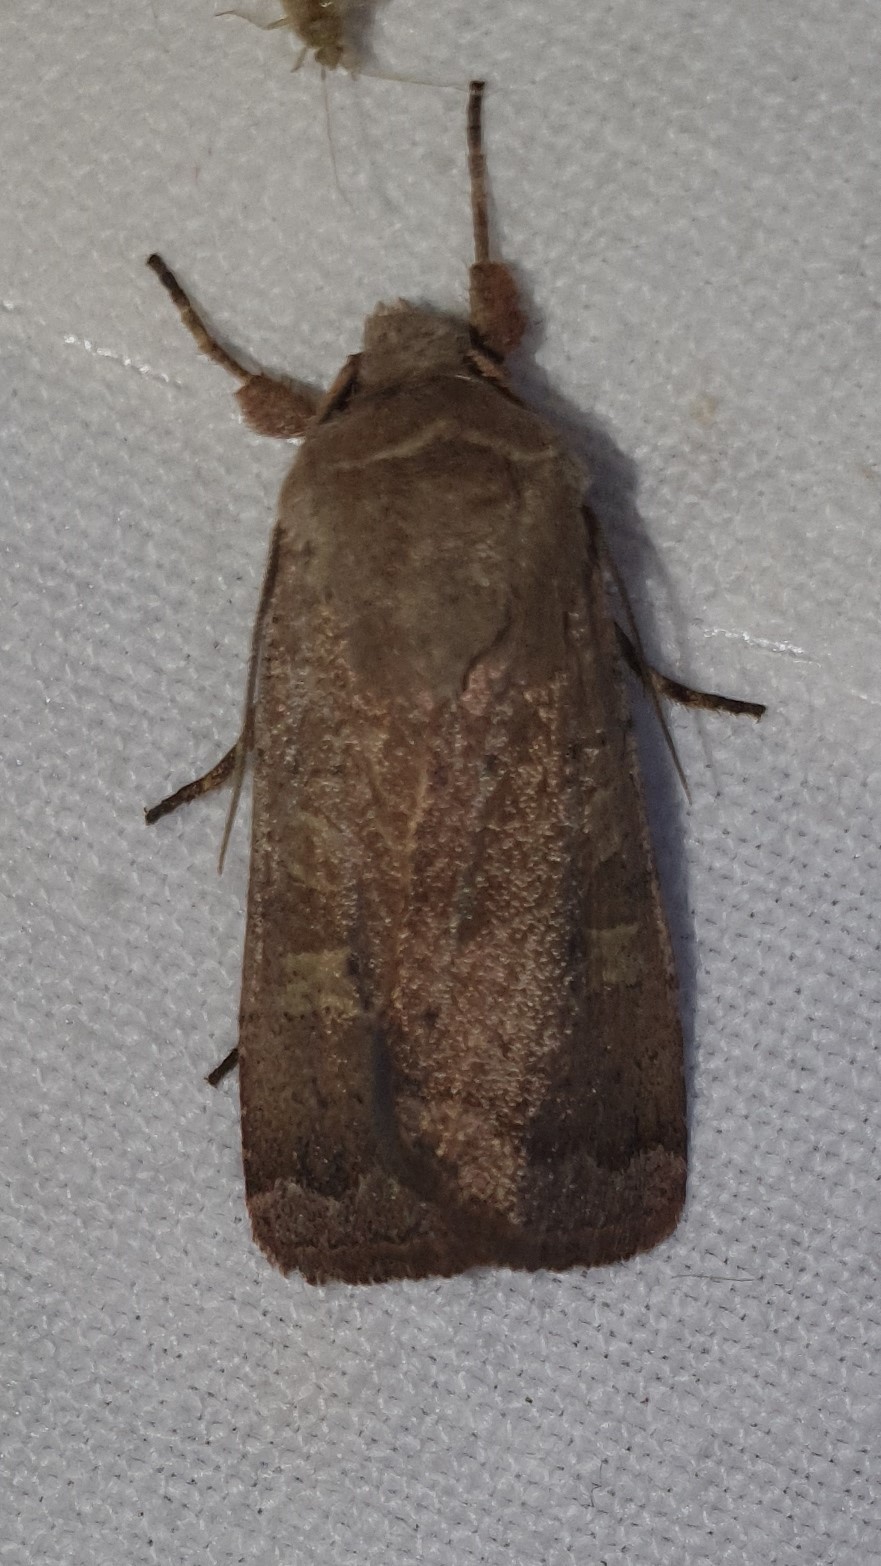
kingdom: Animalia
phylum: Arthropoda
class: Insecta
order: Lepidoptera
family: Noctuidae
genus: Xestia
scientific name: Xestia xanthographa
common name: Square-spot rustic
